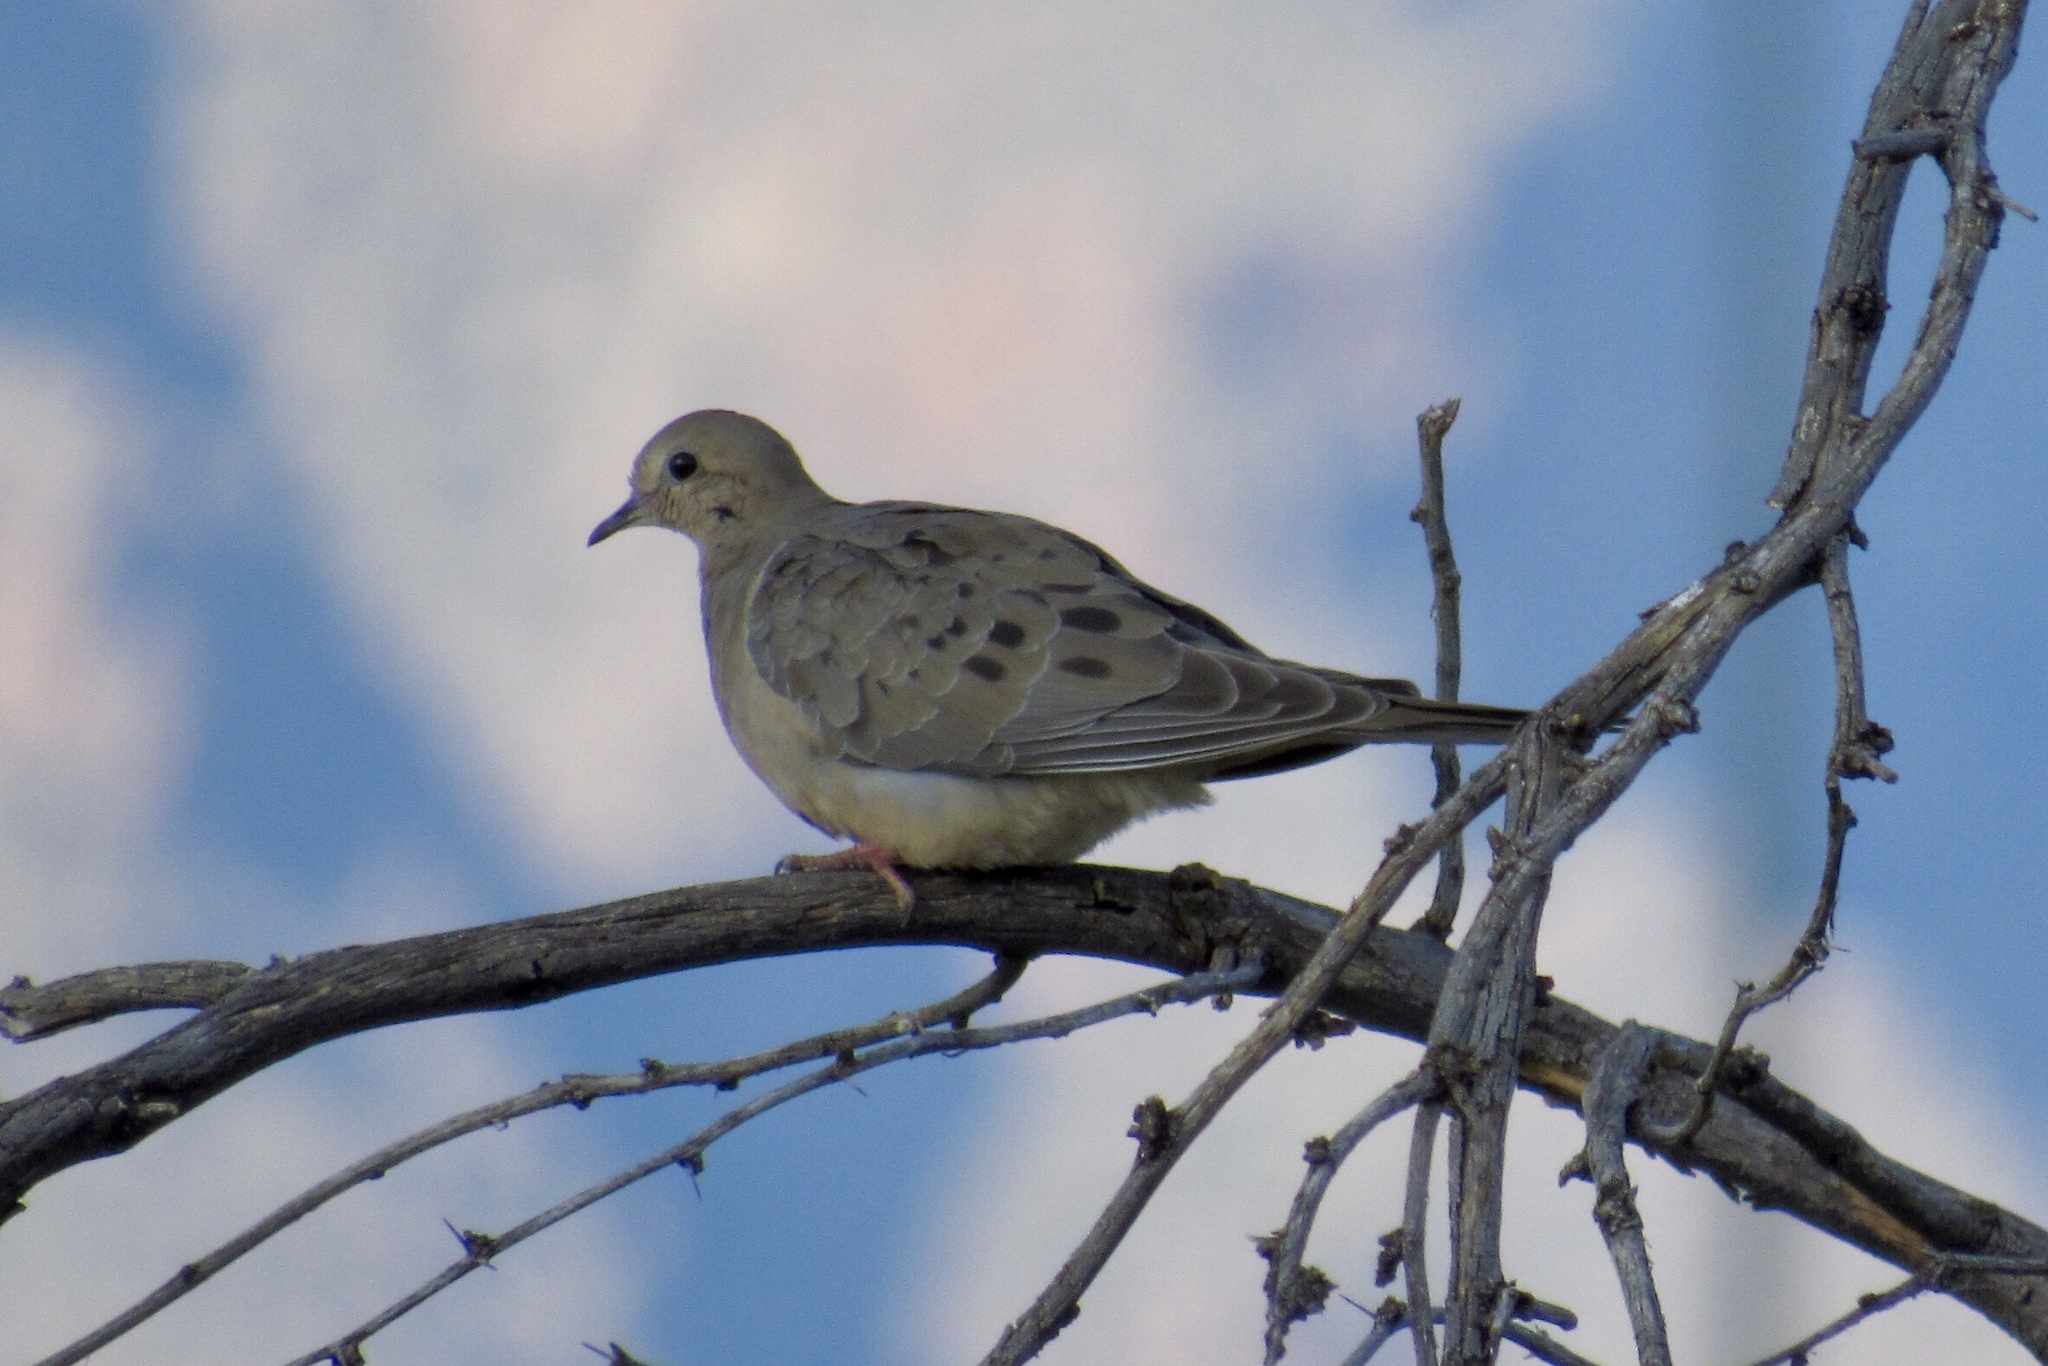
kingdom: Animalia
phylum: Chordata
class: Aves
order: Columbiformes
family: Columbidae
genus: Zenaida
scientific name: Zenaida macroura
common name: Mourning dove
